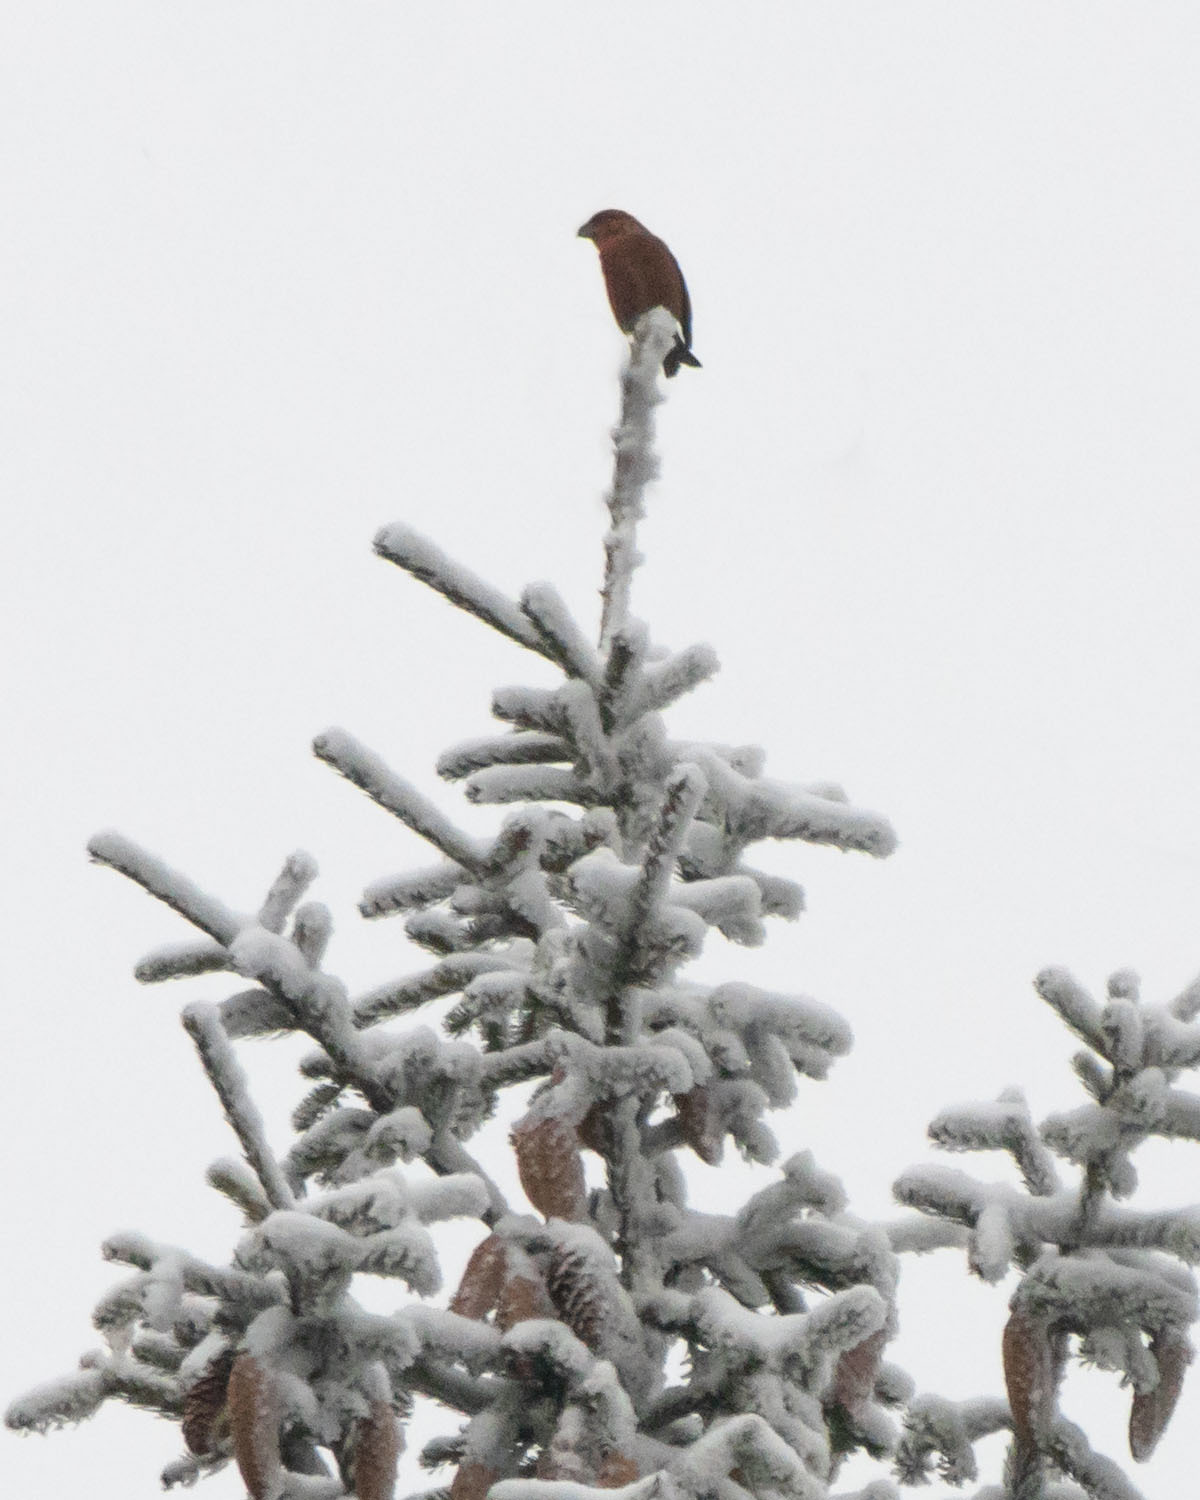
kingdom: Animalia
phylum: Chordata
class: Aves
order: Passeriformes
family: Fringillidae
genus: Loxia
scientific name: Loxia curvirostra
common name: Red crossbill
